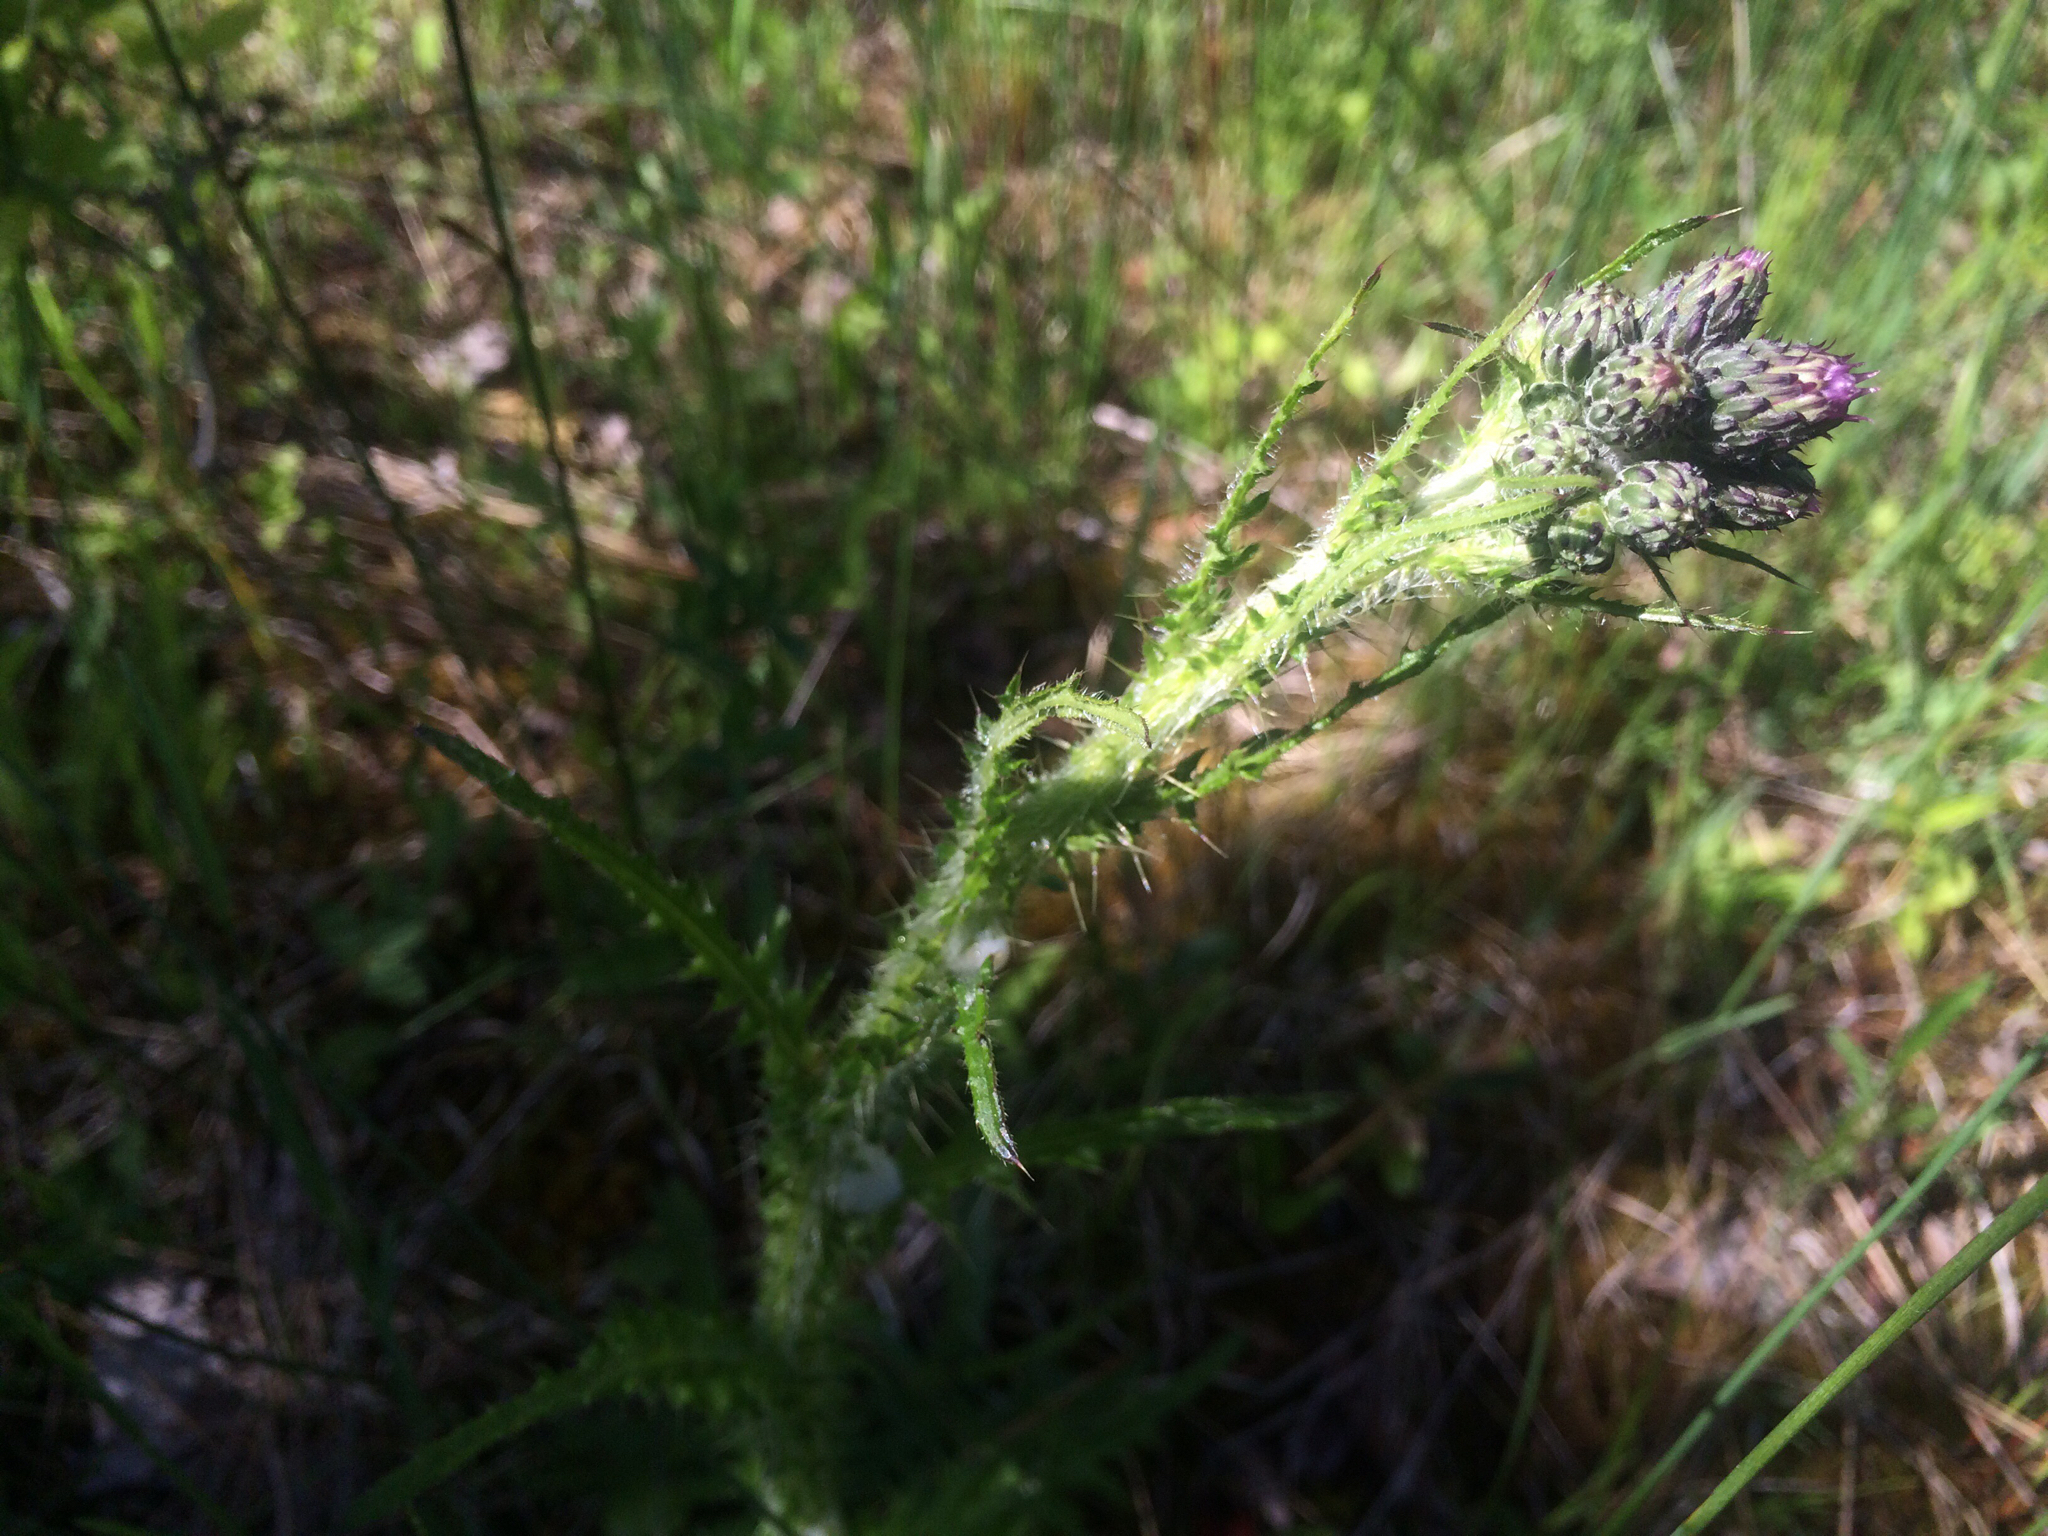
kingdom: Plantae
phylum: Tracheophyta
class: Magnoliopsida
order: Asterales
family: Asteraceae
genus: Cirsium
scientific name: Cirsium palustre
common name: Marsh thistle
